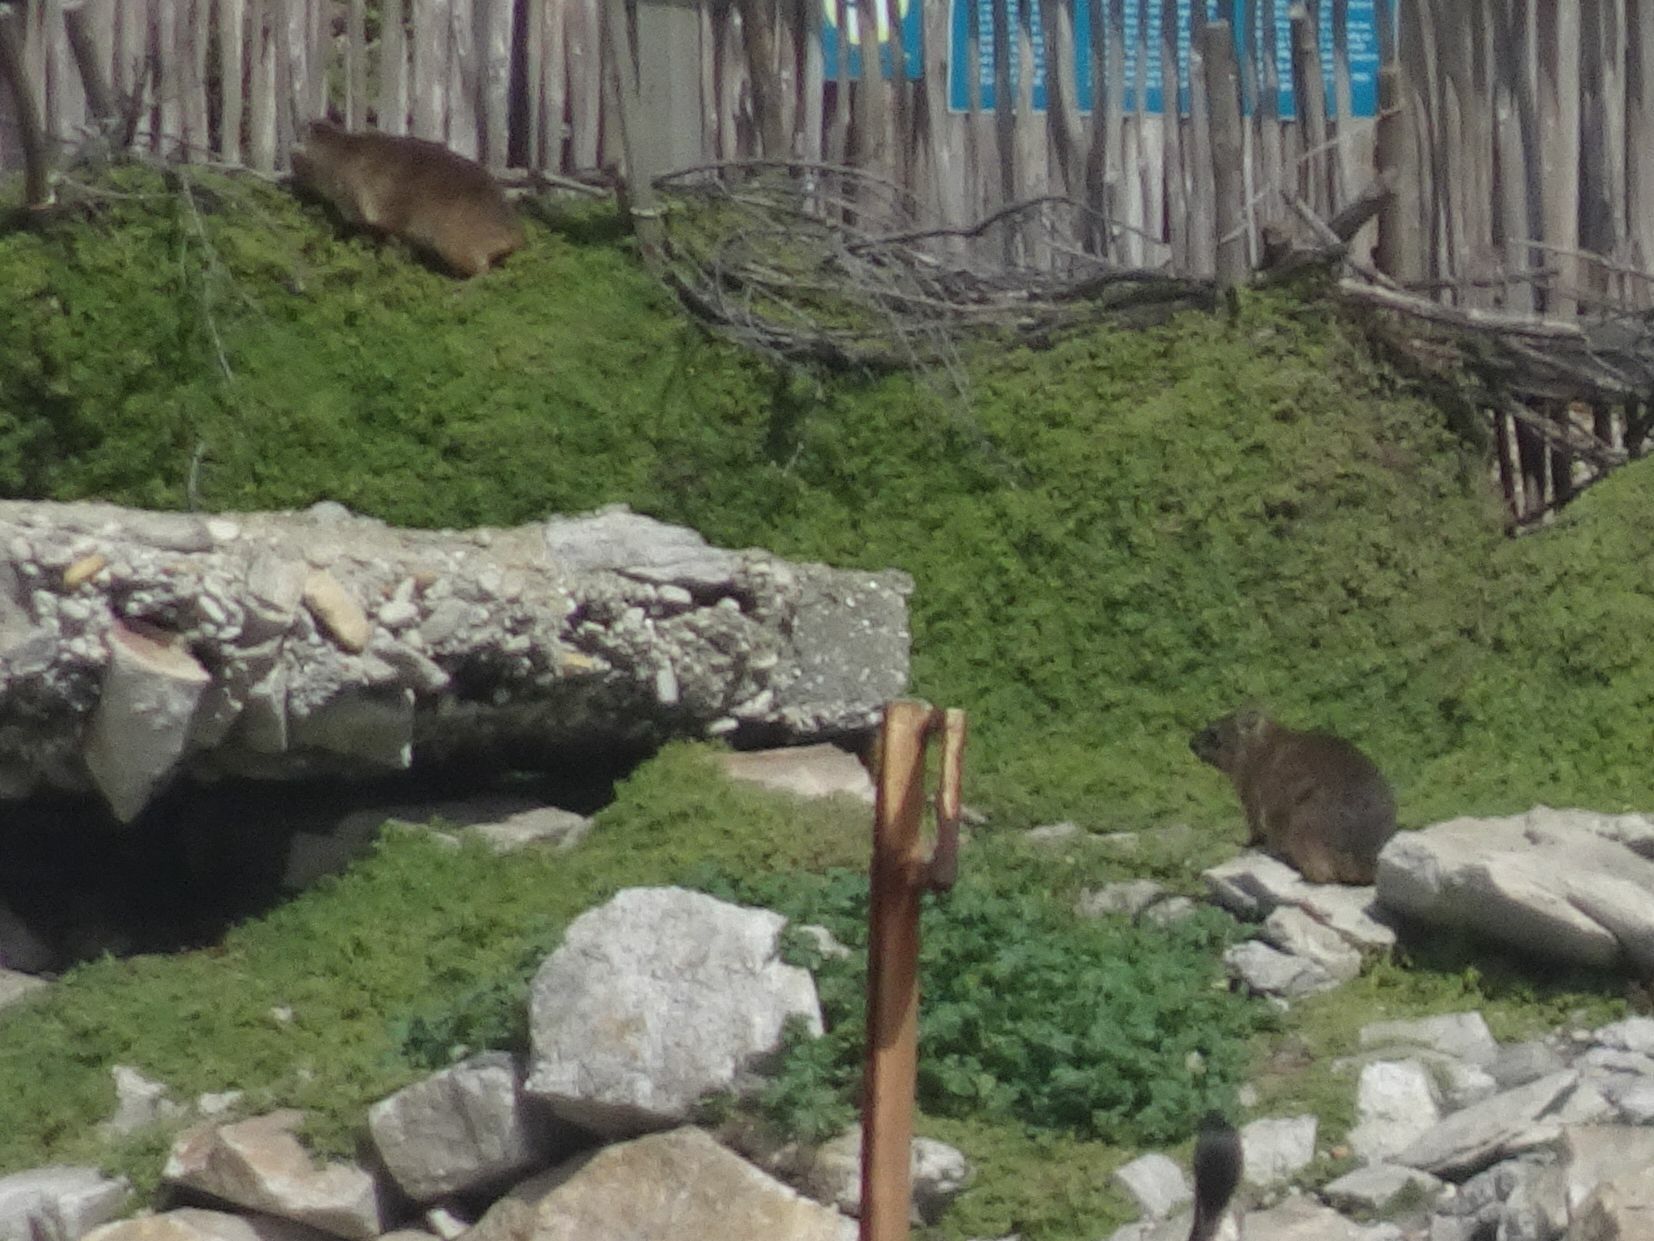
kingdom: Animalia
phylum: Chordata
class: Mammalia
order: Hyracoidea
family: Procaviidae
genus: Procavia
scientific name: Procavia capensis
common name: Rock hyrax
